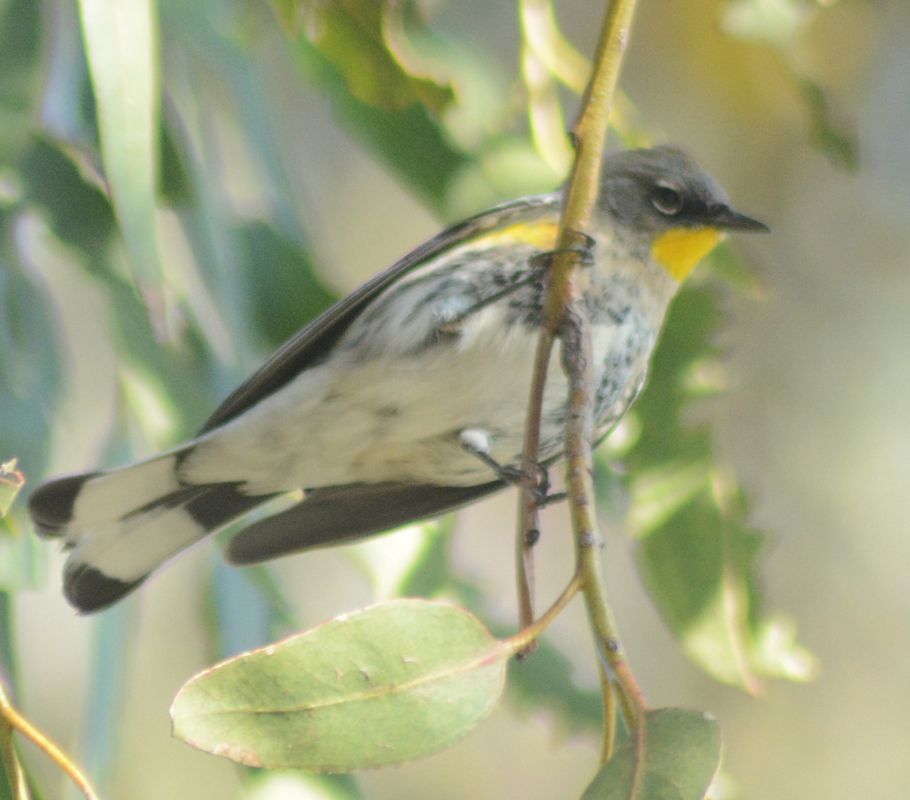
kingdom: Animalia
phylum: Chordata
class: Aves
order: Passeriformes
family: Parulidae
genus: Setophaga
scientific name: Setophaga coronata
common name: Myrtle warbler
